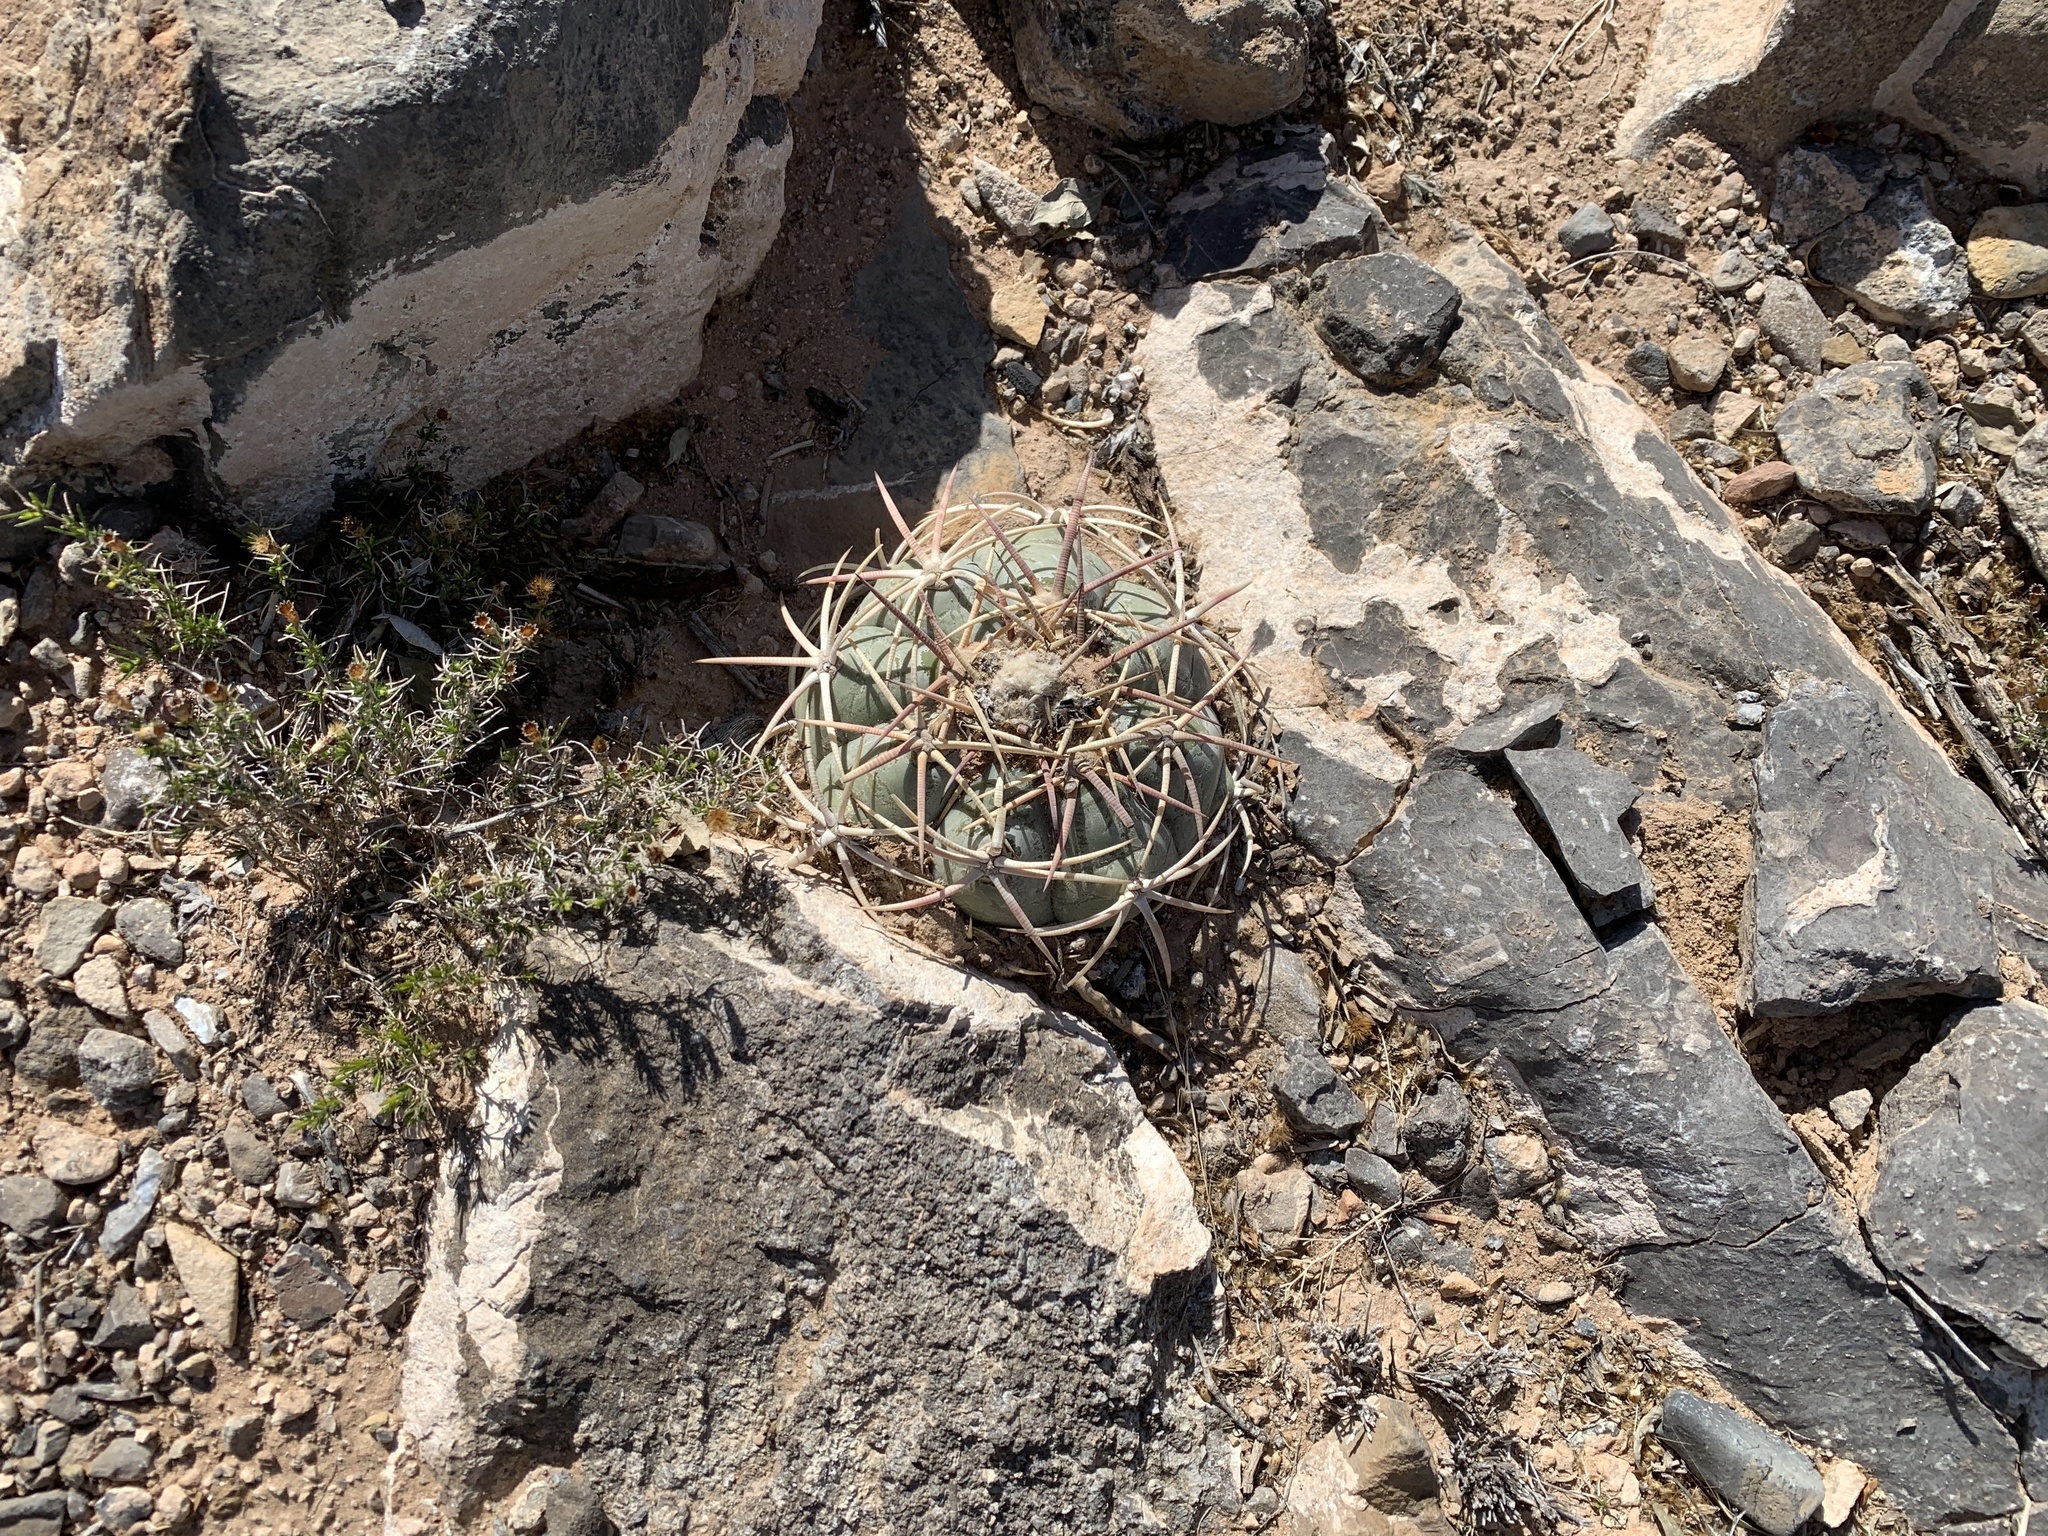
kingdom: Plantae
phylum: Tracheophyta
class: Magnoliopsida
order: Caryophyllales
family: Cactaceae
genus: Echinocactus
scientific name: Echinocactus horizonthalonius
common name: Devilshead
